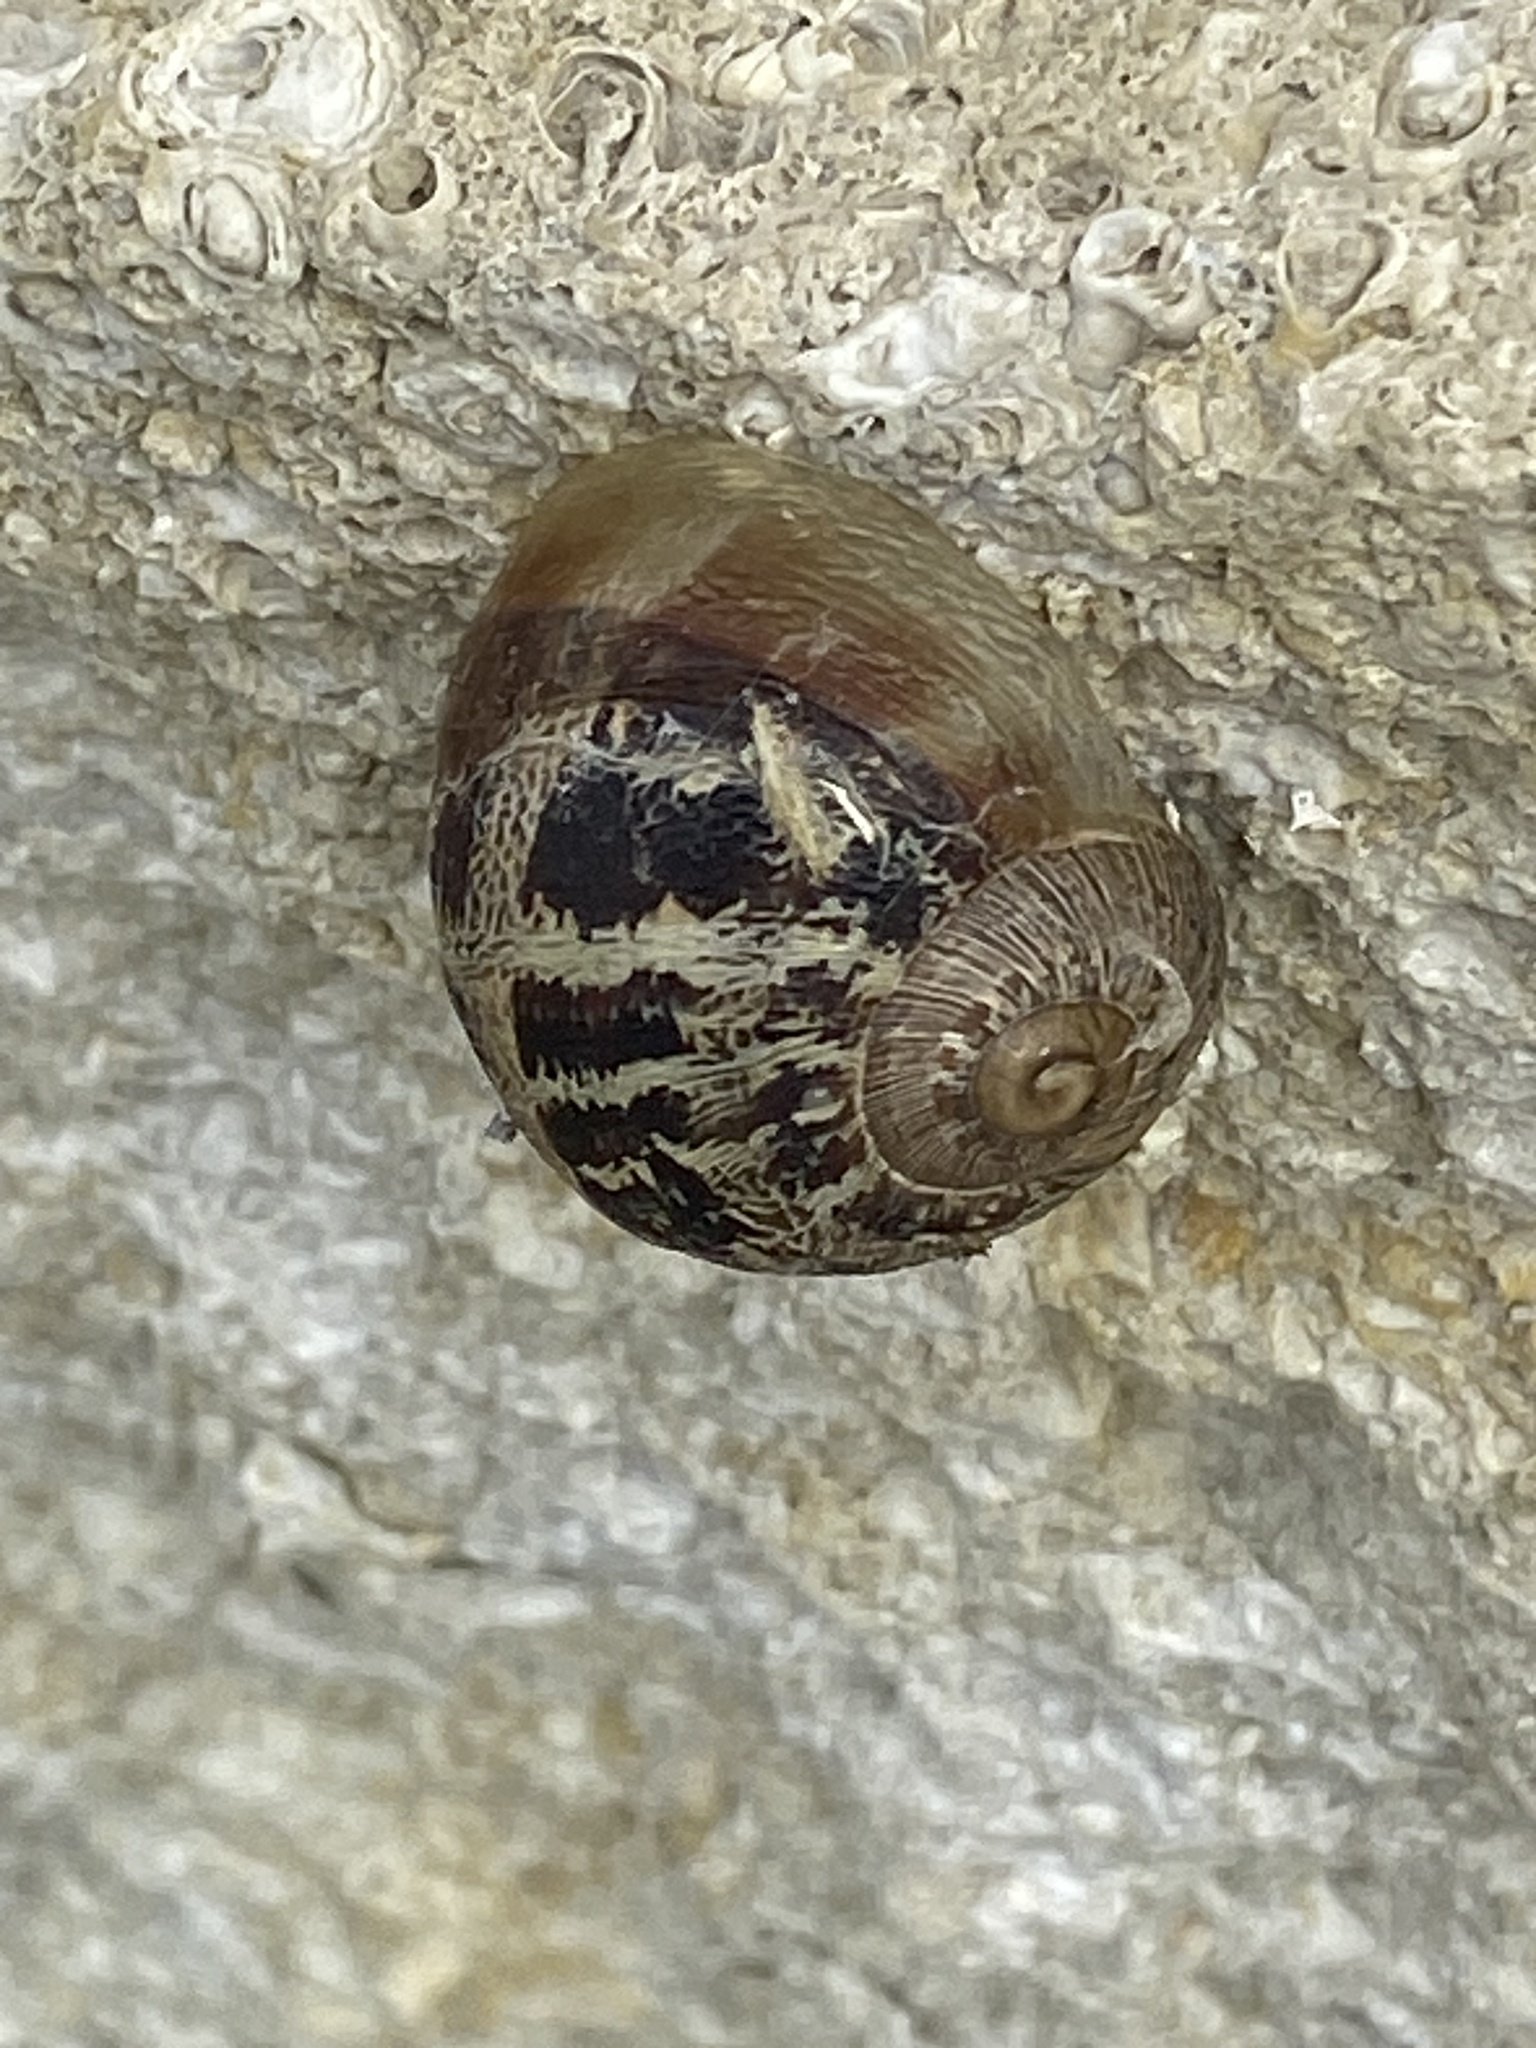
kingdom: Animalia
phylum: Mollusca
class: Gastropoda
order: Stylommatophora
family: Helicidae
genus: Cornu
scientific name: Cornu aspersum
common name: Brown garden snail
